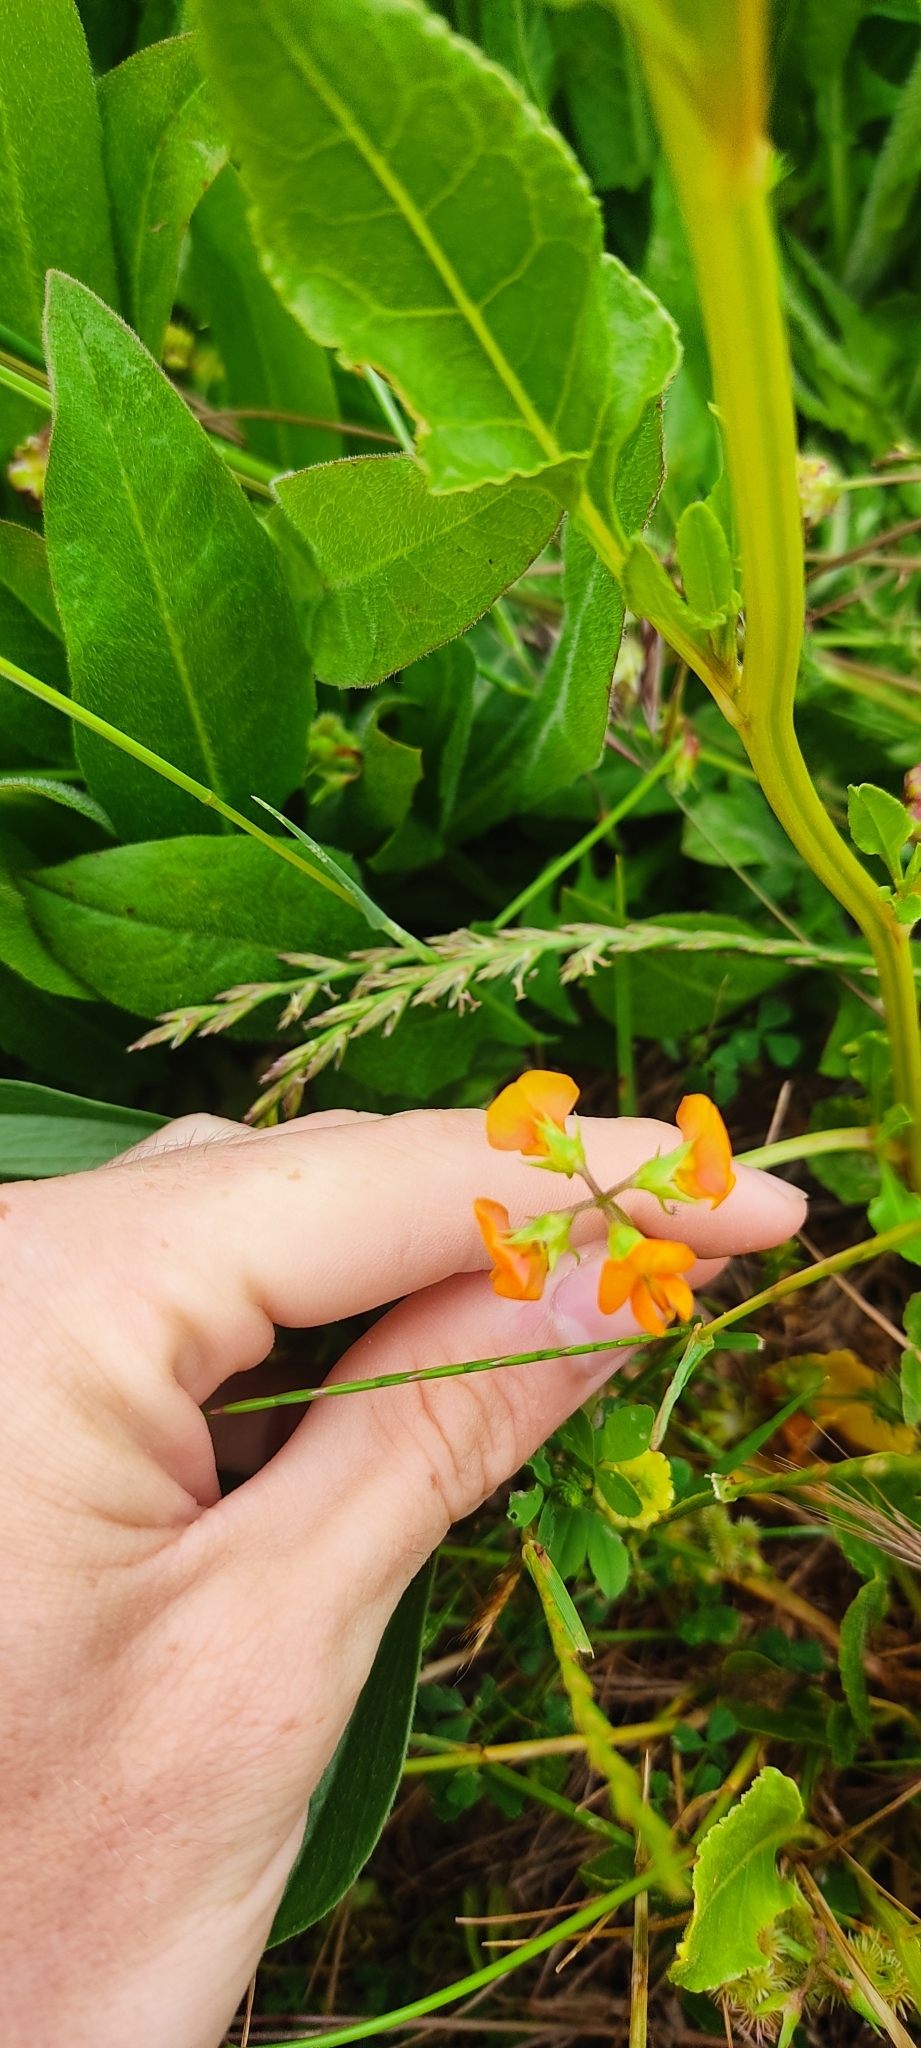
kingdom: Plantae
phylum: Tracheophyta
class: Magnoliopsida
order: Fabales
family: Fabaceae
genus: Scorpiurus
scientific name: Scorpiurus muricatus
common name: Caterpillar-plant
